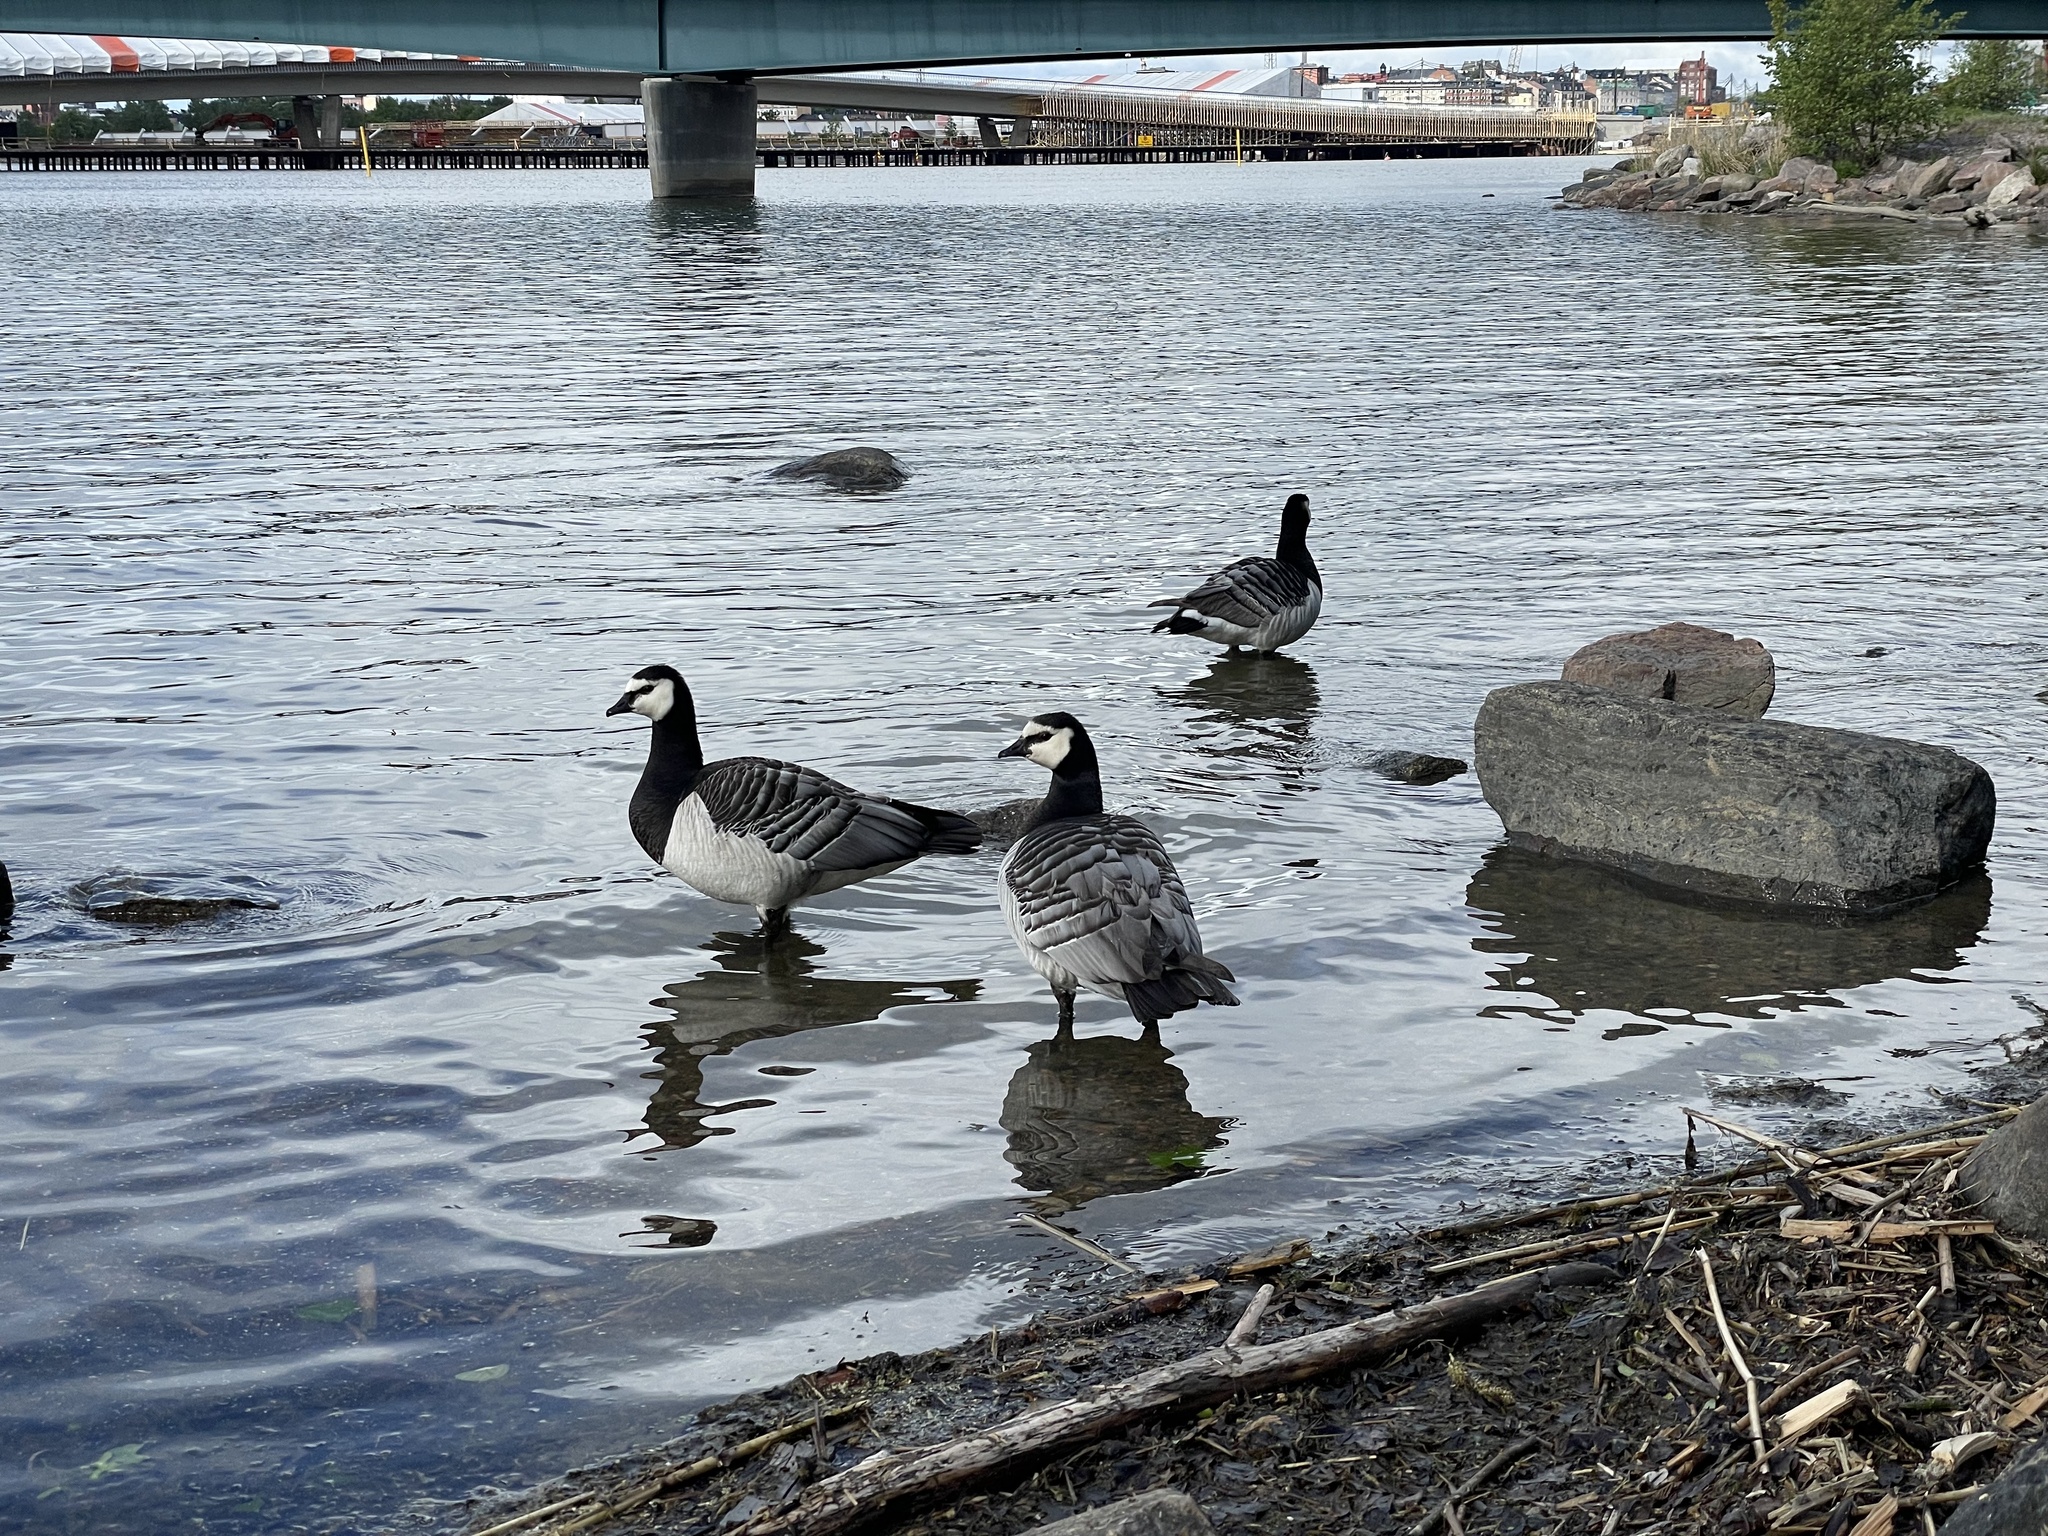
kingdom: Animalia
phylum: Chordata
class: Aves
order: Anseriformes
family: Anatidae
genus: Branta
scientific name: Branta leucopsis
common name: Barnacle goose
